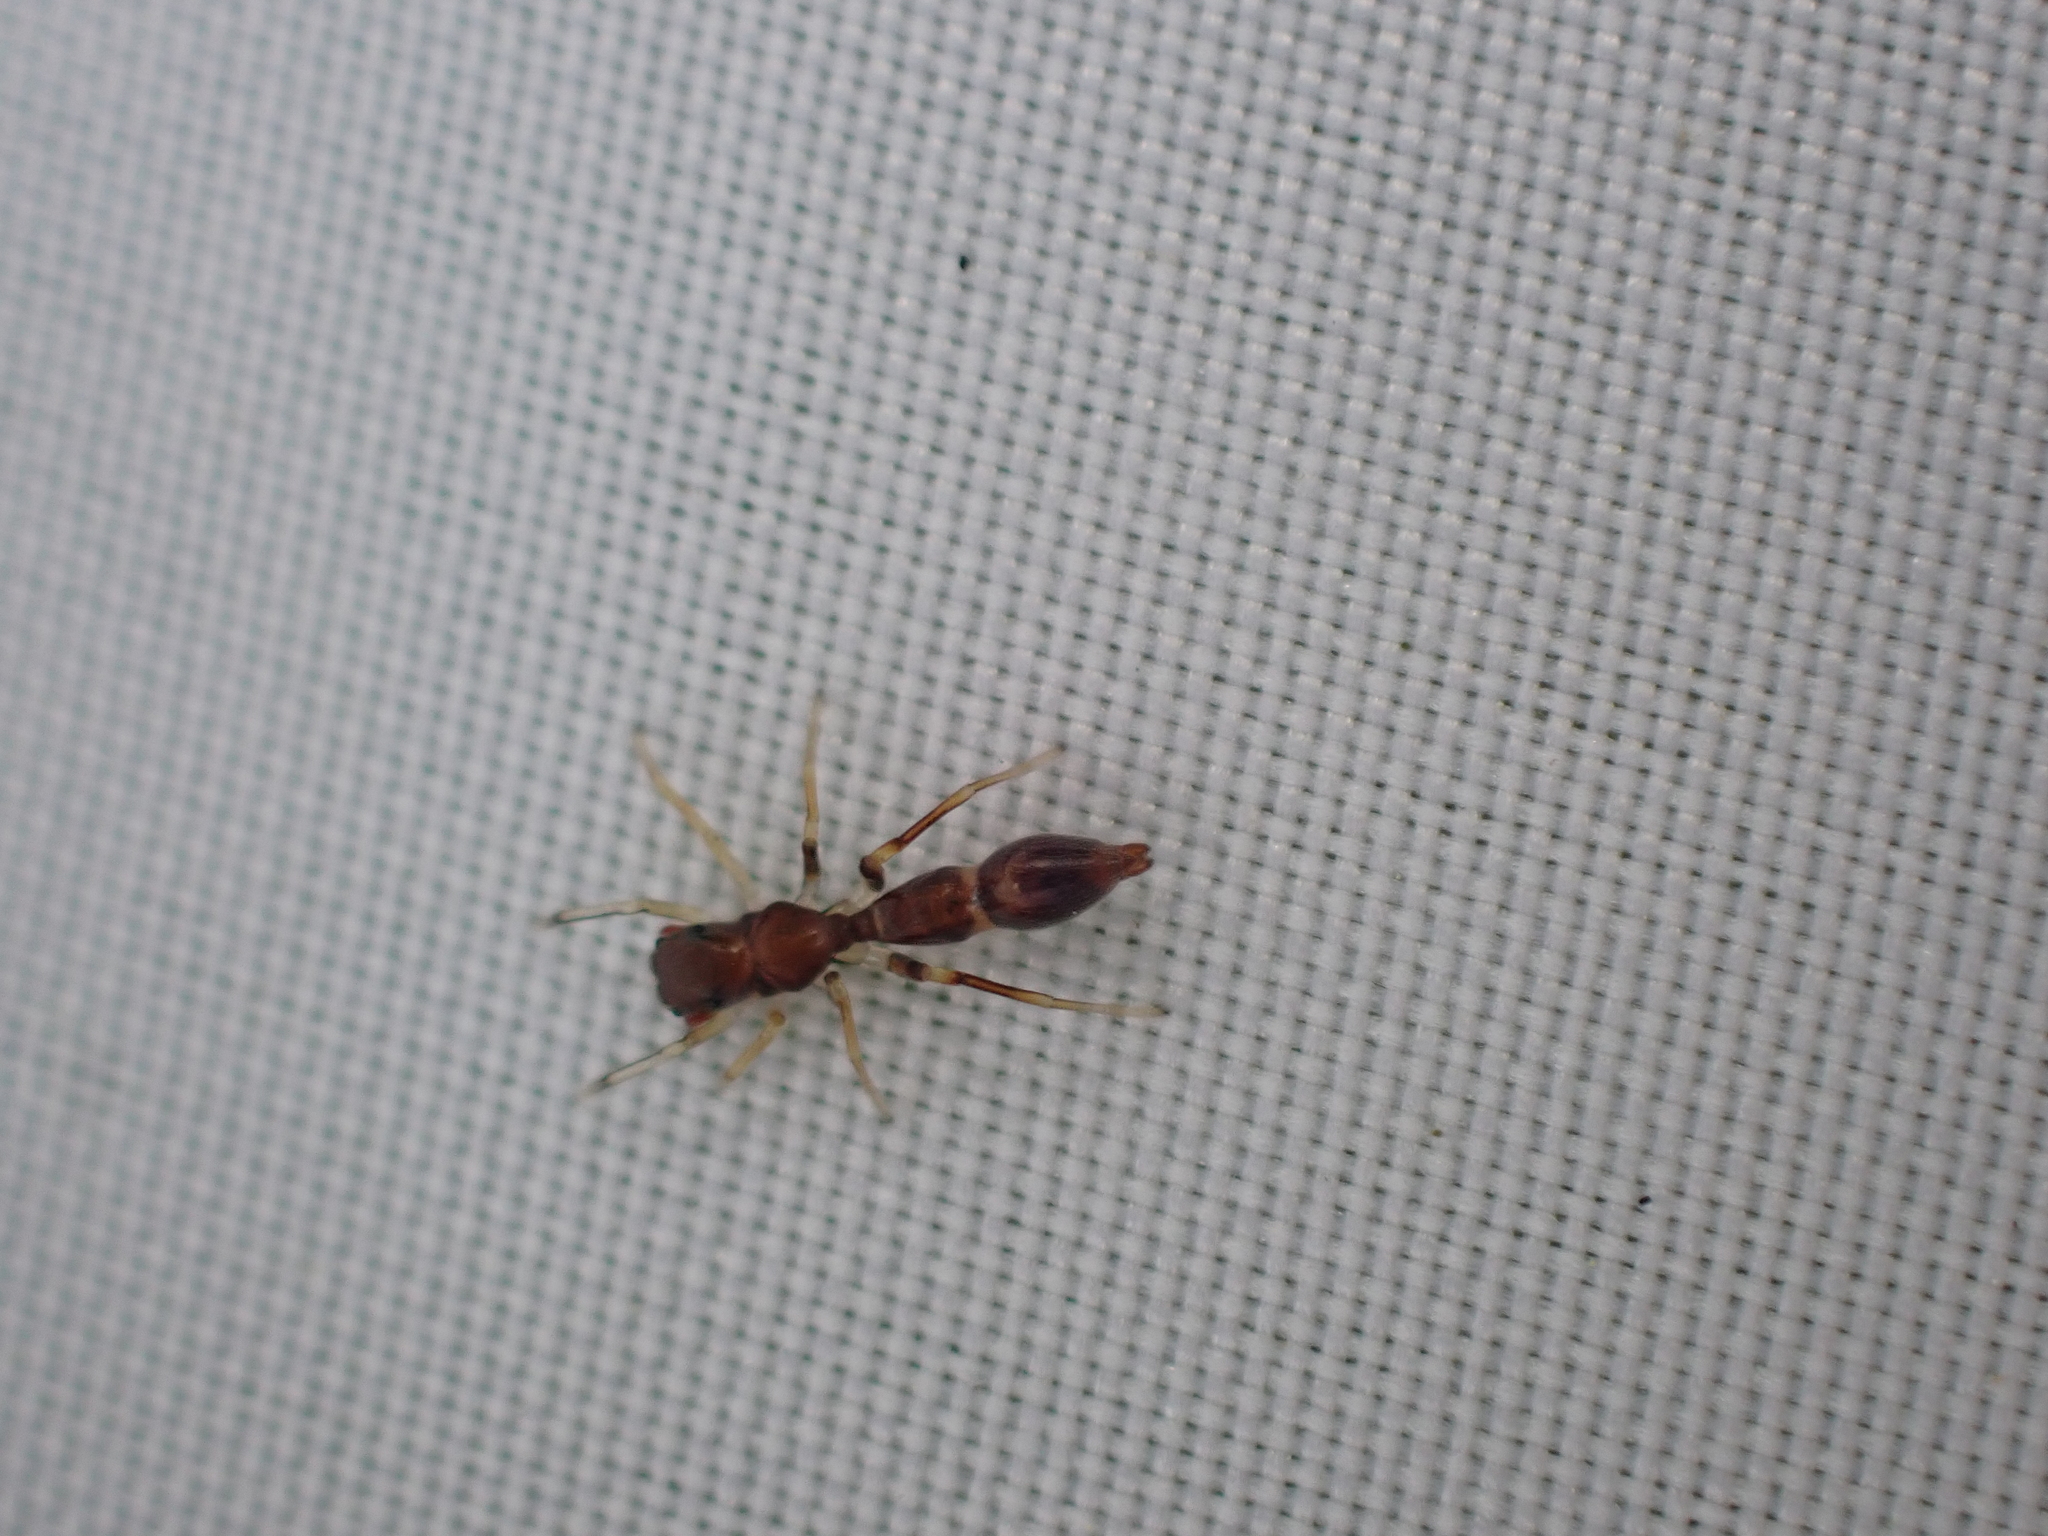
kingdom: Animalia
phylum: Arthropoda
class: Arachnida
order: Araneae
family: Salticidae
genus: Synemosyna
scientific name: Synemosyna formica
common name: Slender ant-mimic jumping spider
